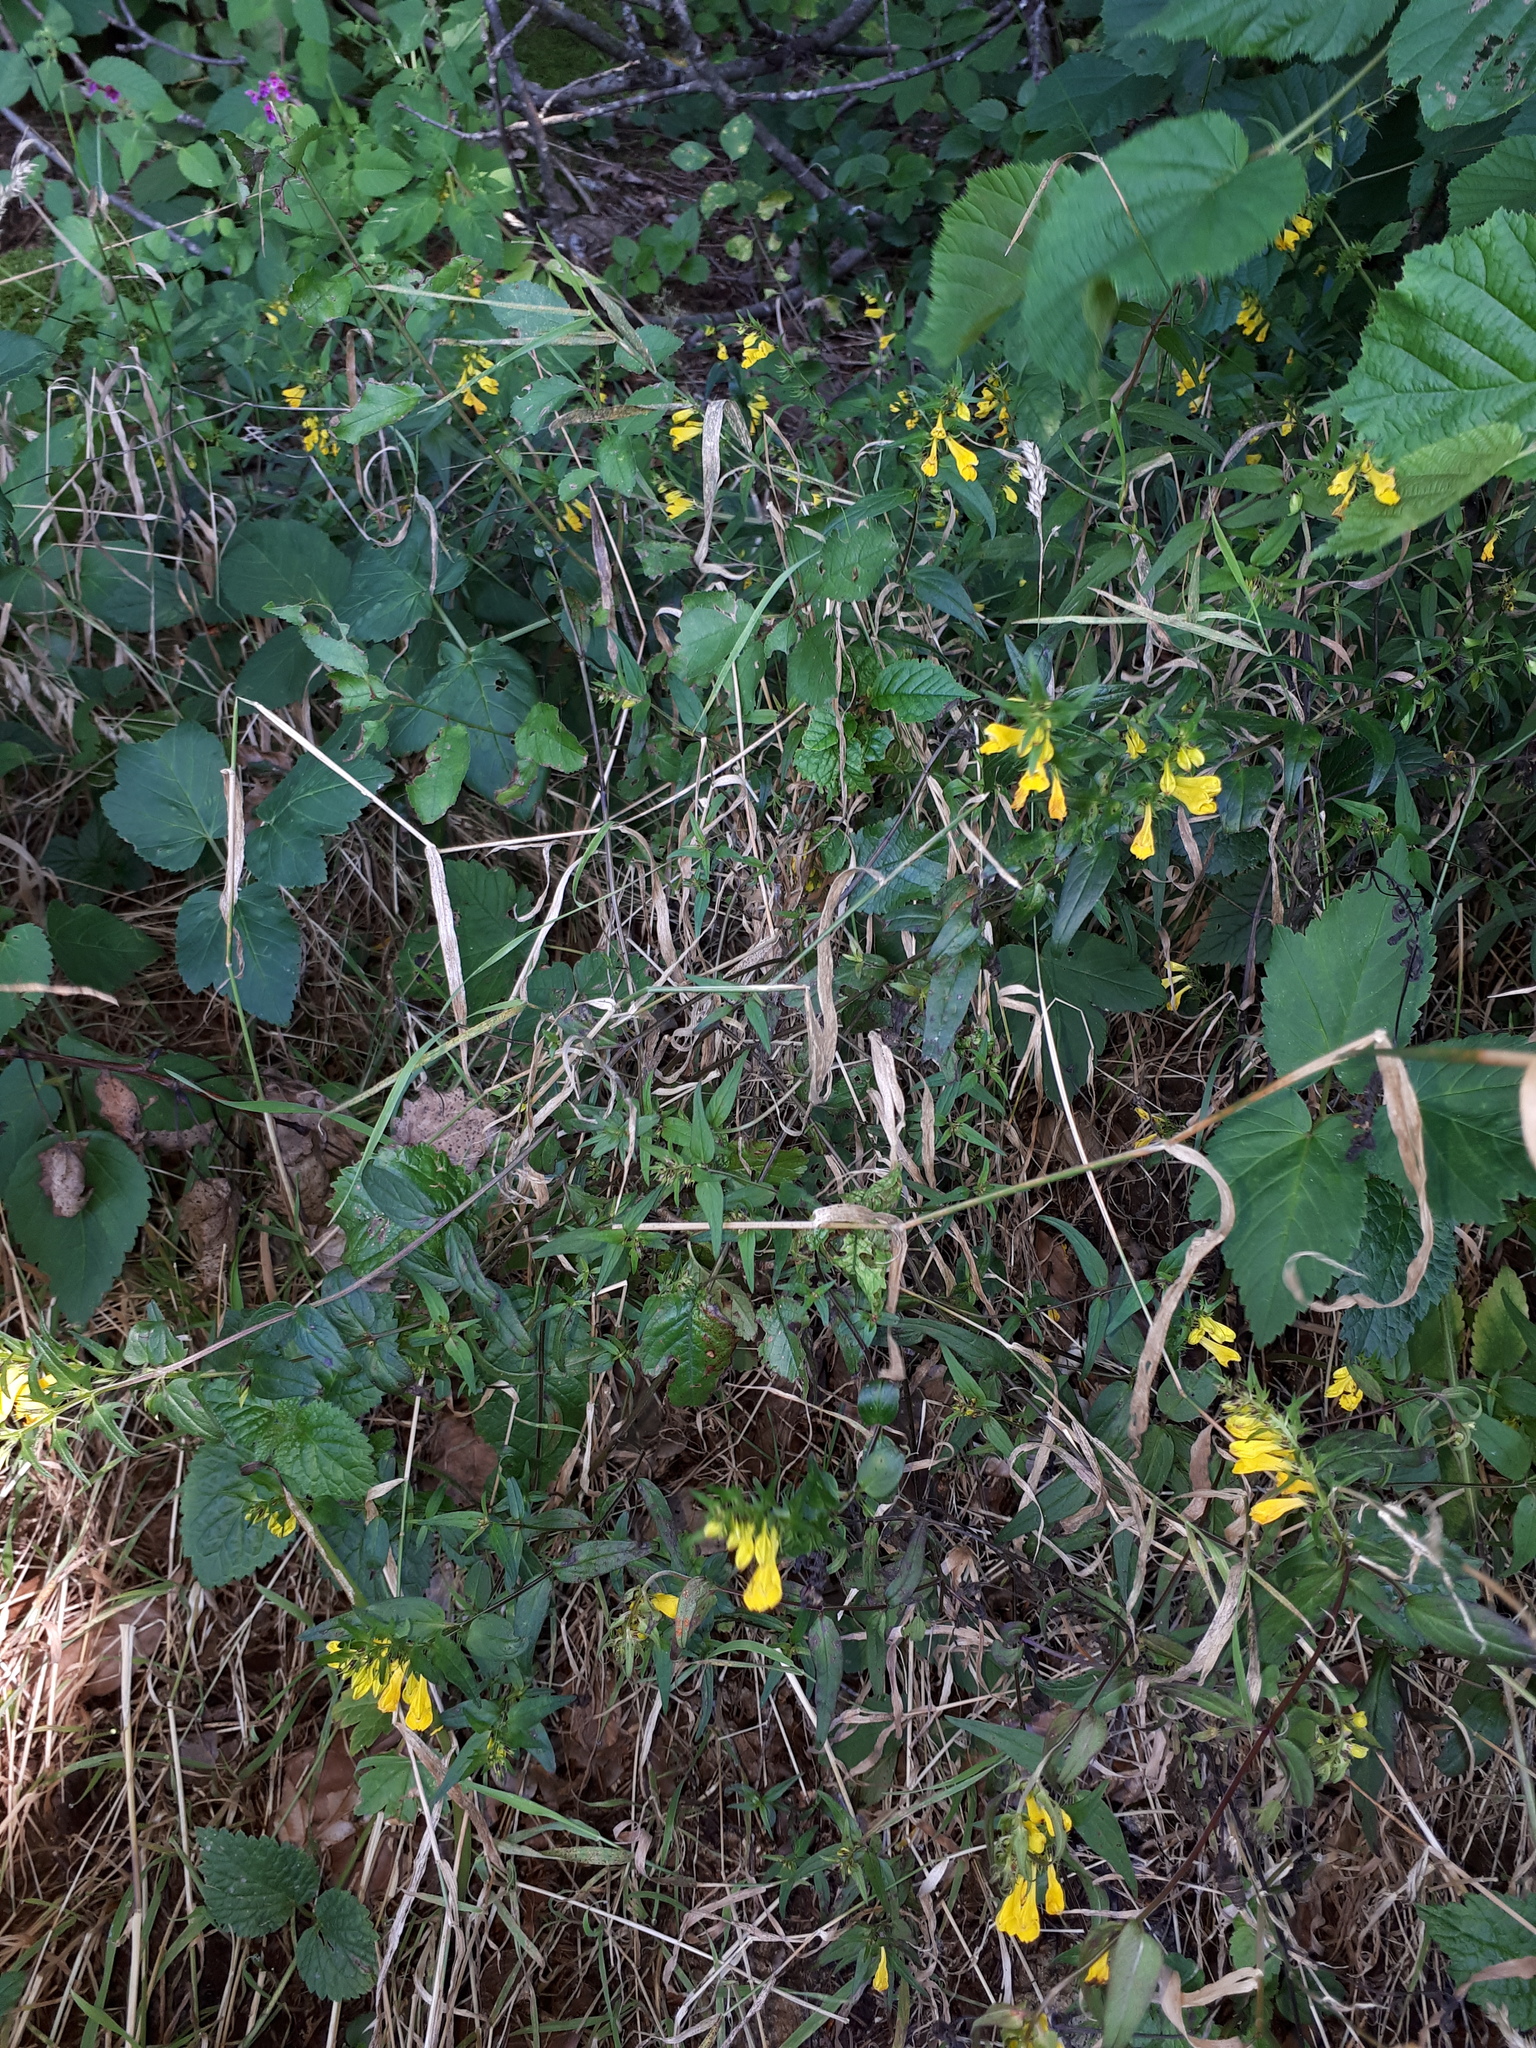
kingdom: Plantae
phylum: Tracheophyta
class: Magnoliopsida
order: Lamiales
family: Orobanchaceae
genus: Melampyrum
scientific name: Melampyrum pratense
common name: Common cow-wheat
